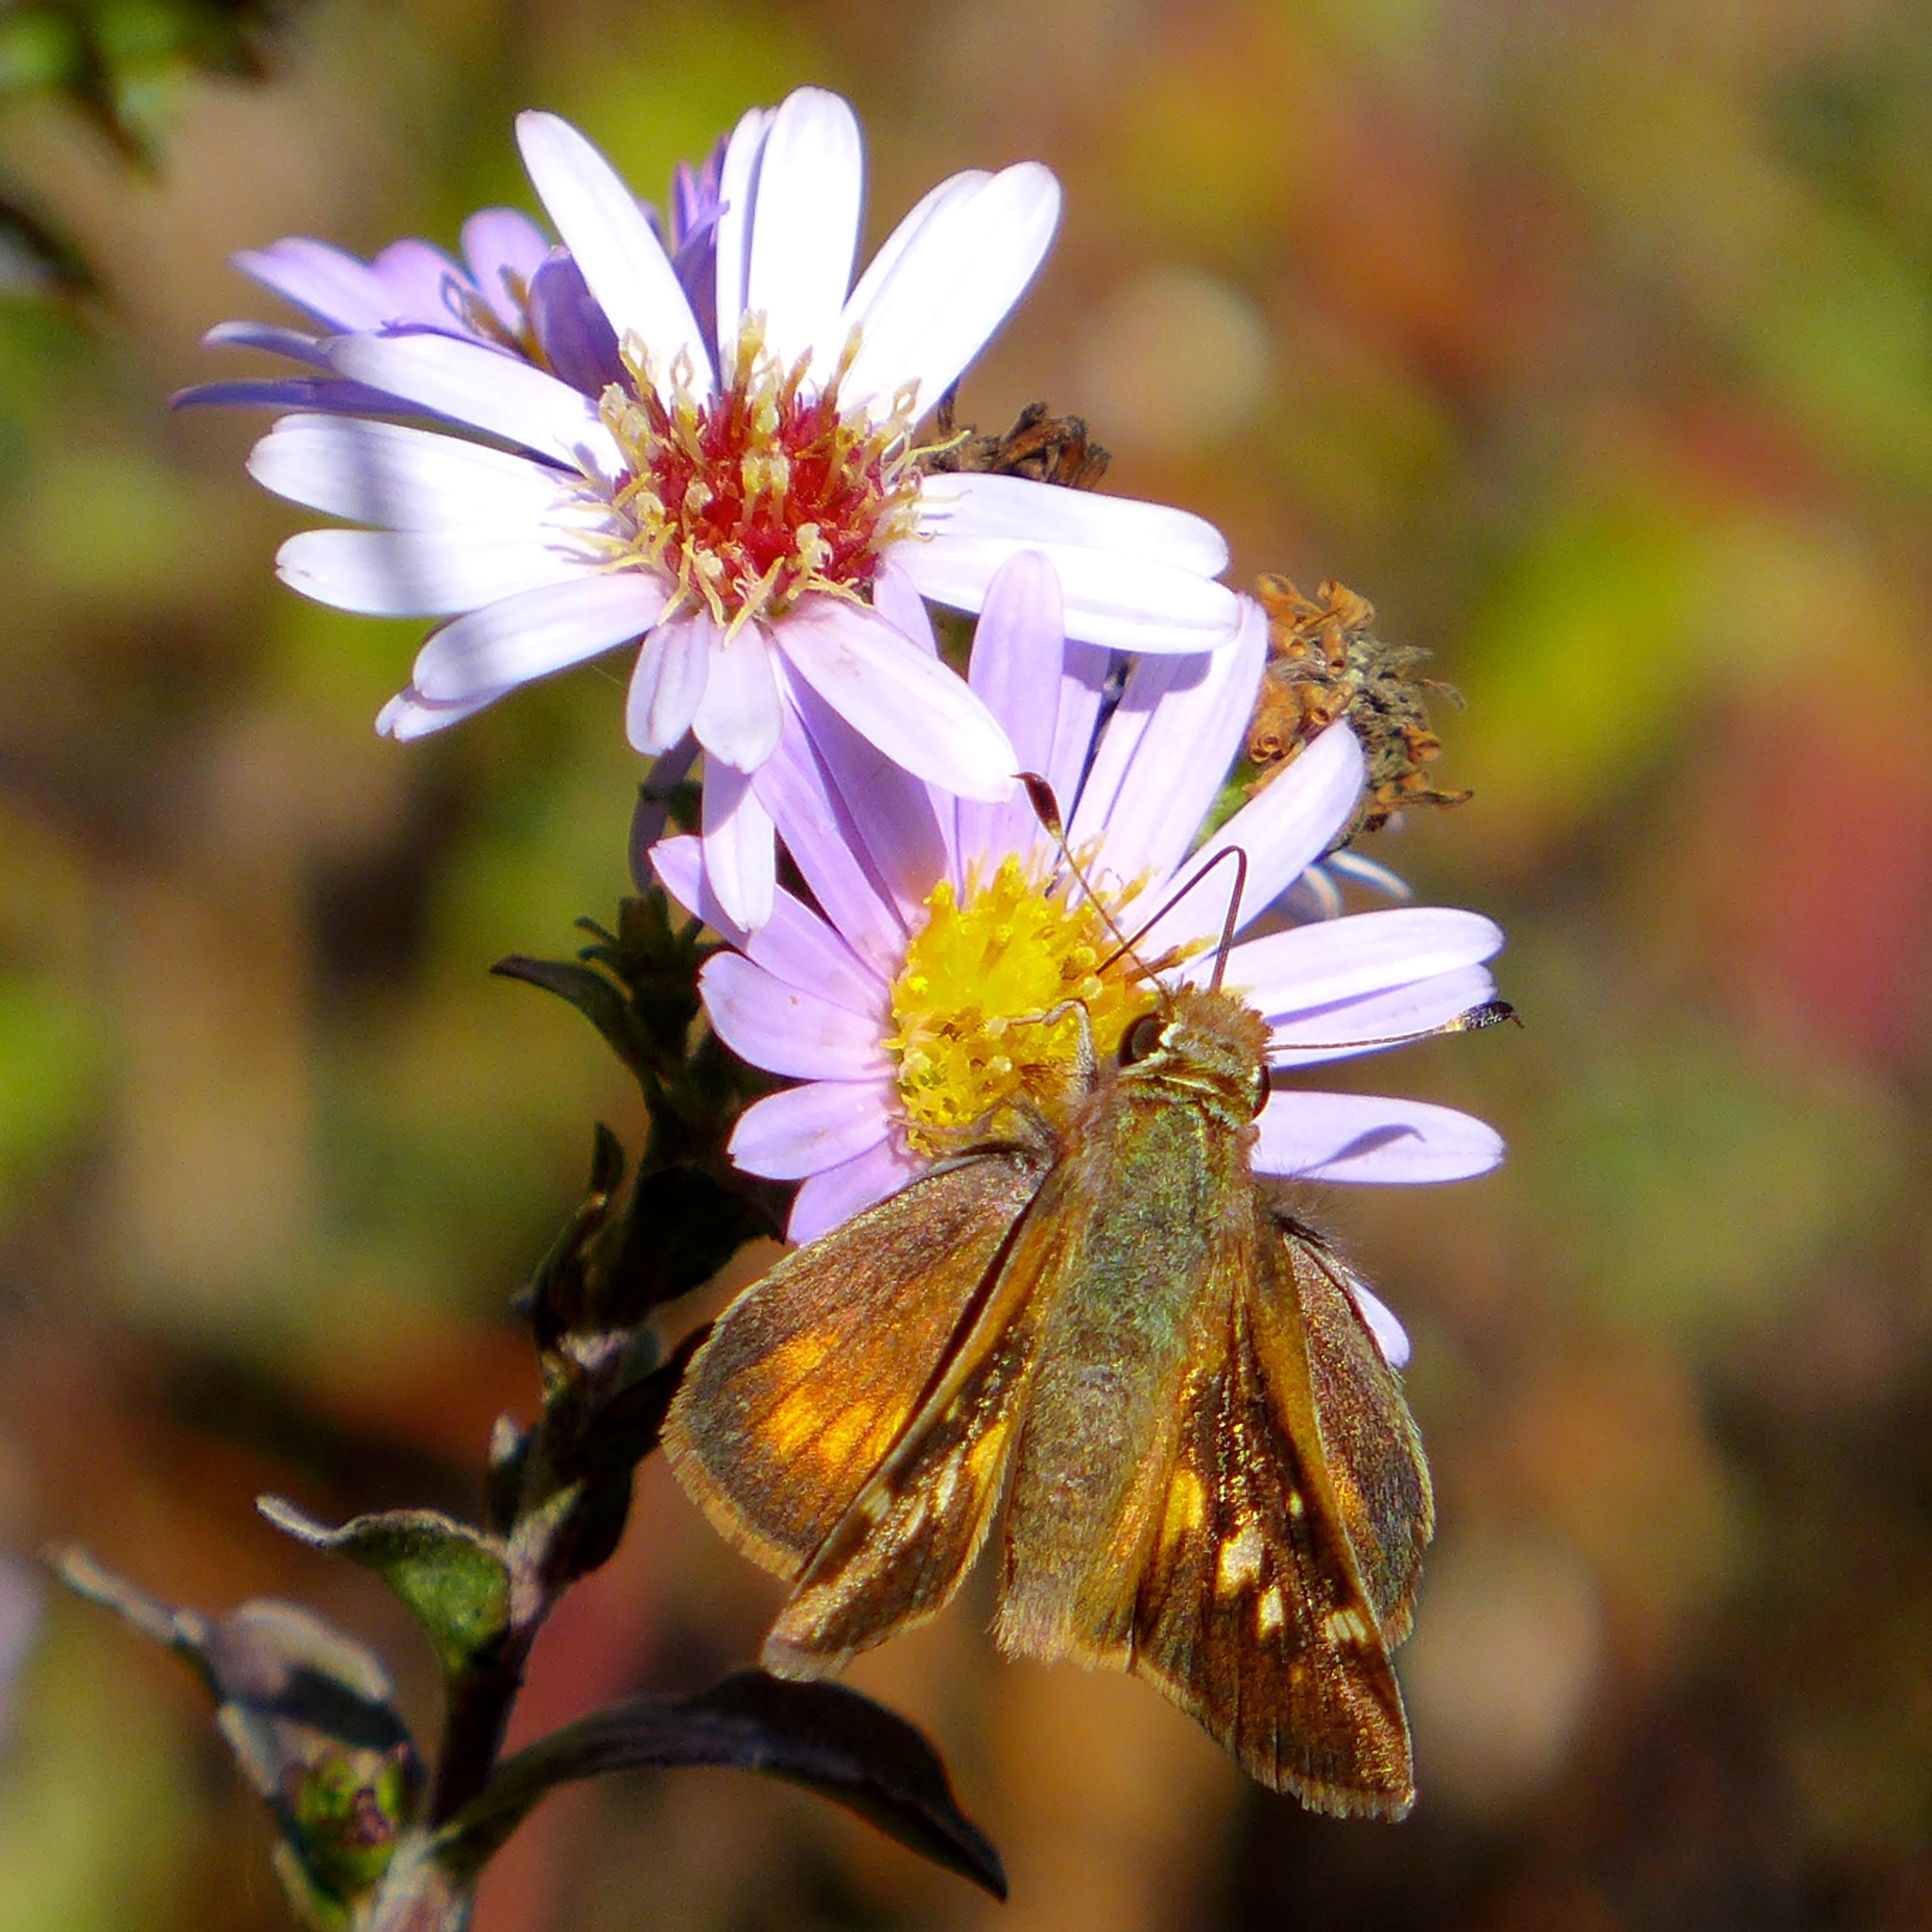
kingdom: Animalia
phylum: Arthropoda
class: Insecta
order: Lepidoptera
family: Hesperiidae
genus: Lon
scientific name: Lon melane
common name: Umber skipper
